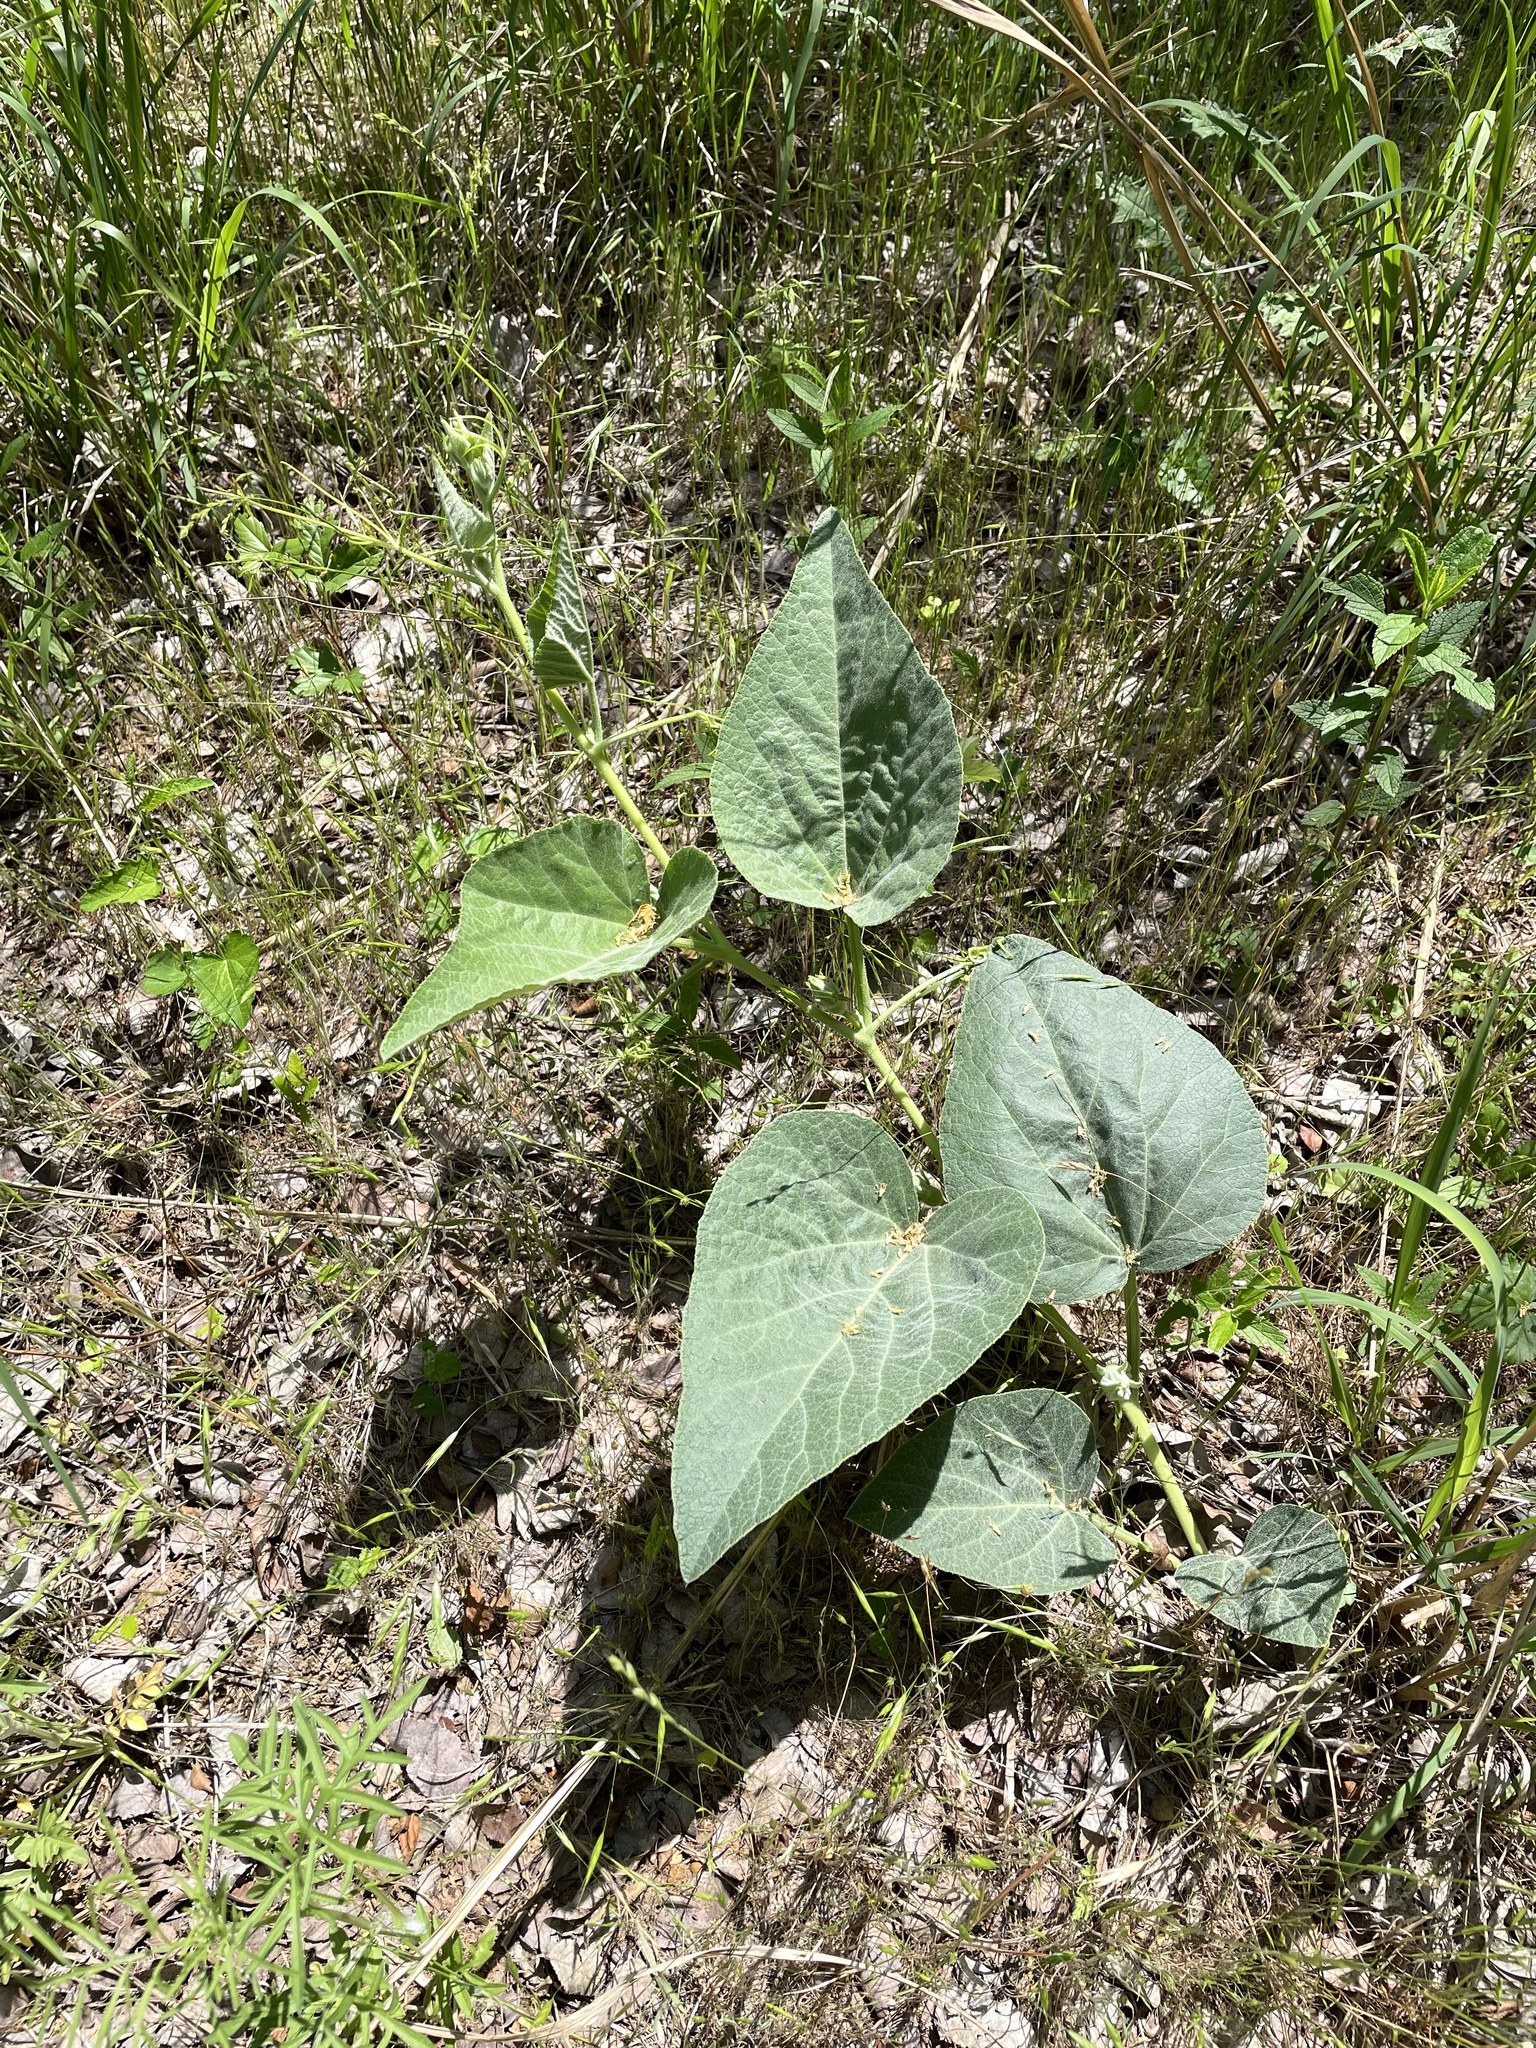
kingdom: Plantae
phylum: Tracheophyta
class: Magnoliopsida
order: Cucurbitales
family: Cucurbitaceae
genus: Cucurbita
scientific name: Cucurbita foetidissima
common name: Buffalo gourd
